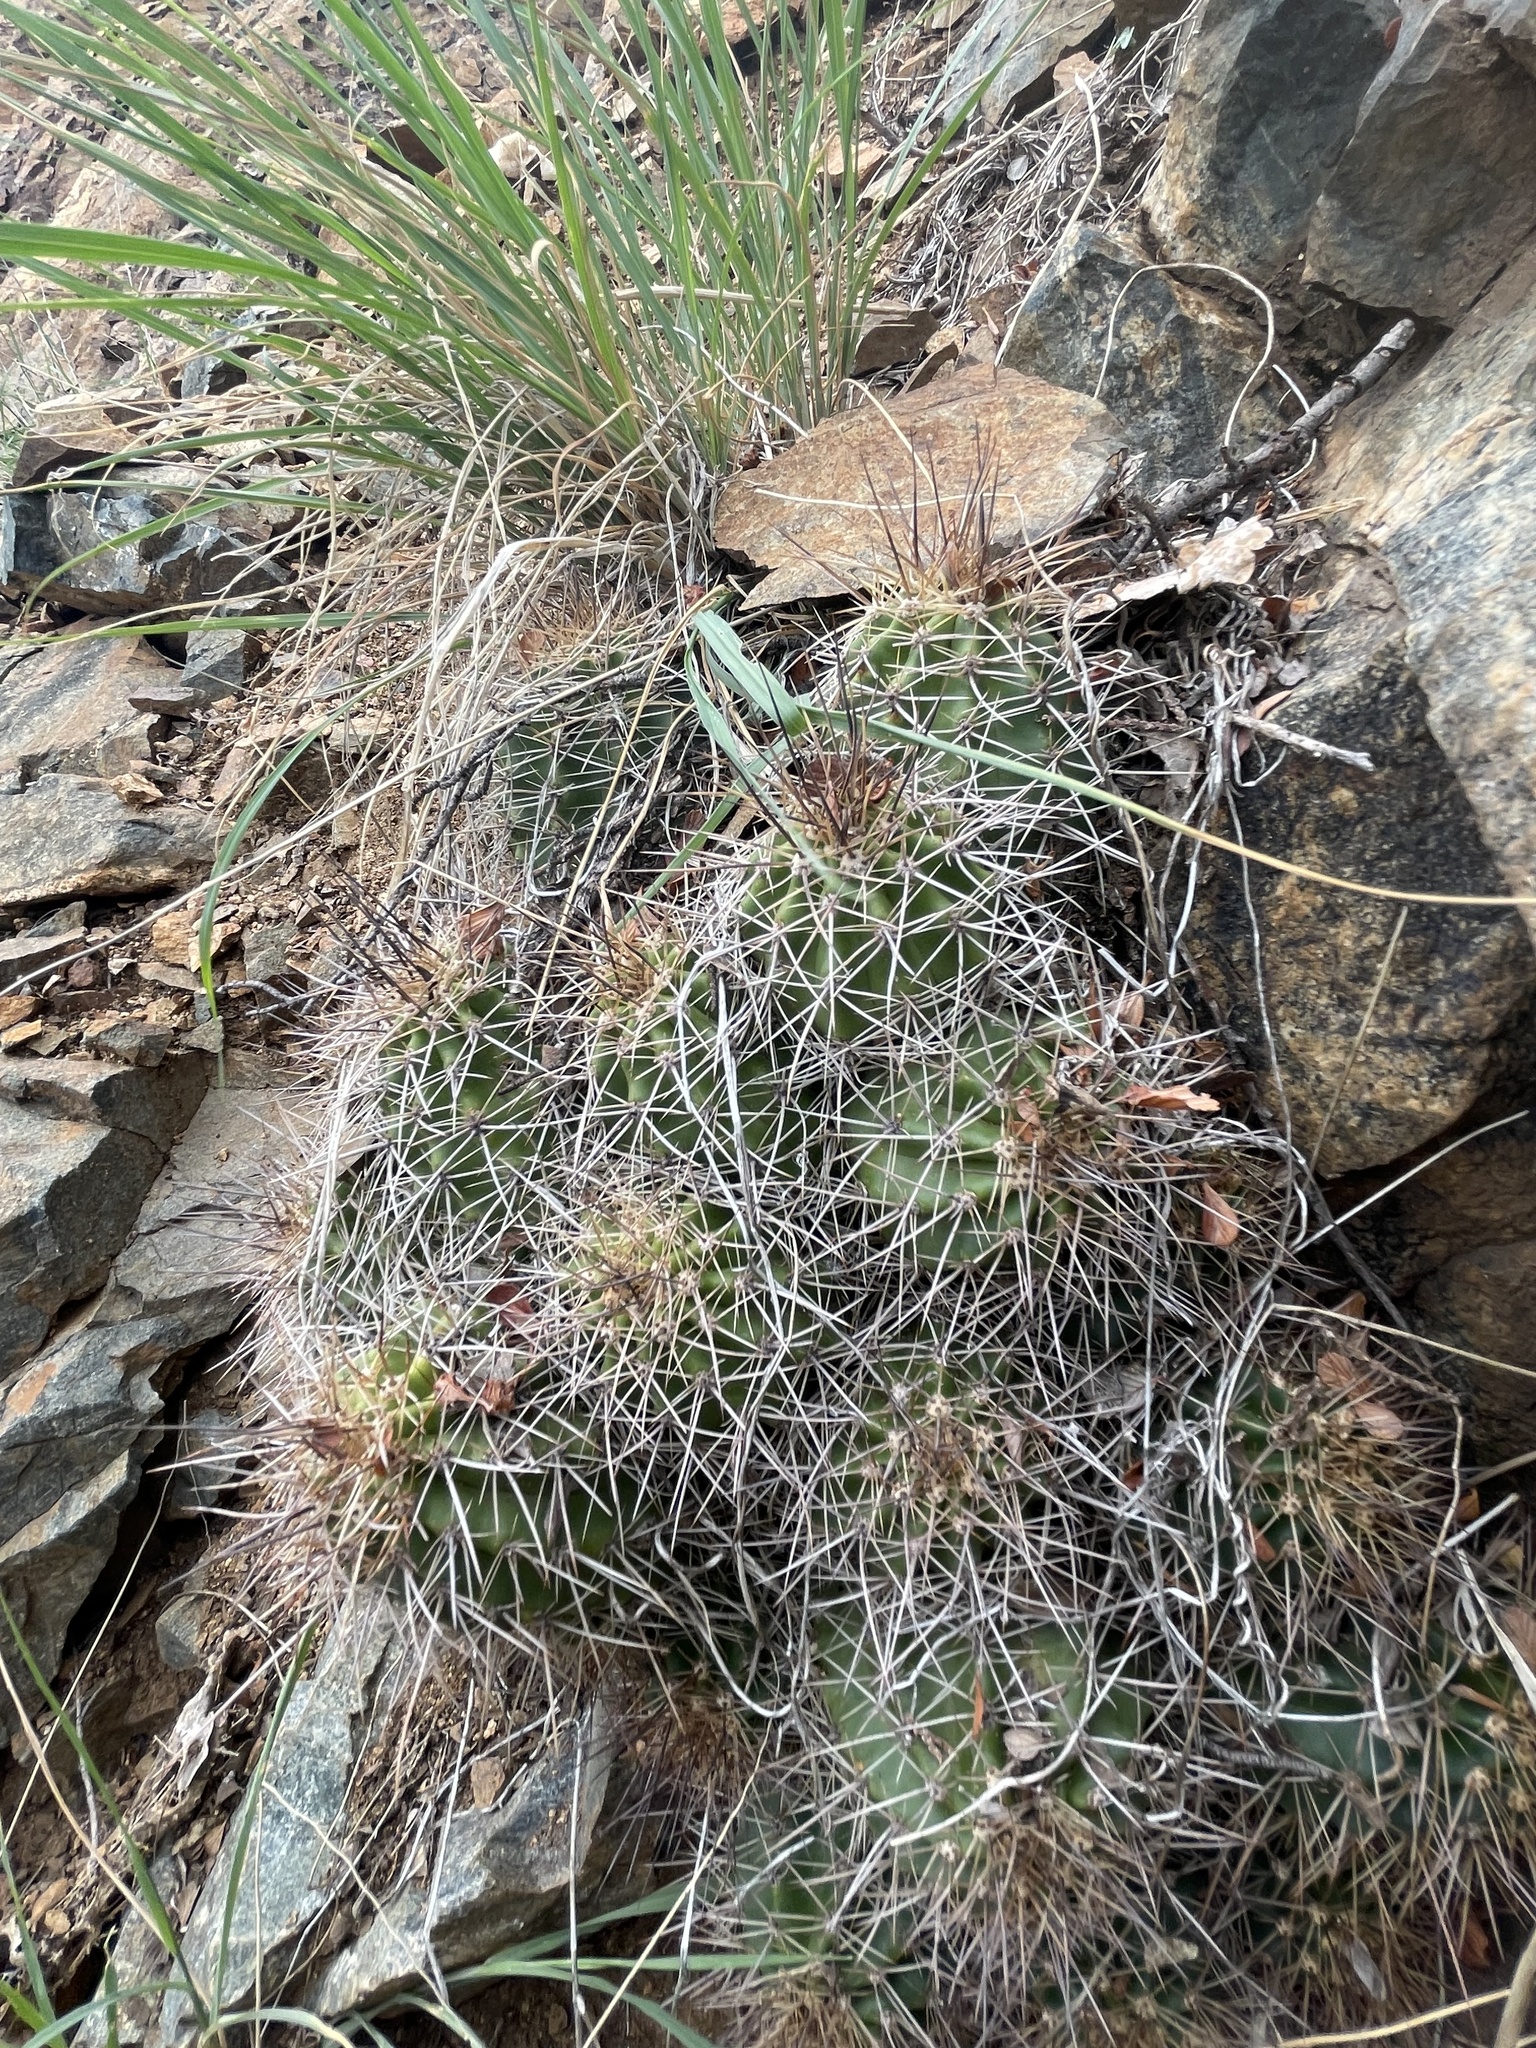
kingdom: Plantae
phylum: Tracheophyta
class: Magnoliopsida
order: Caryophyllales
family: Cactaceae
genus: Echinocereus
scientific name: Echinocereus yavapaiensis
